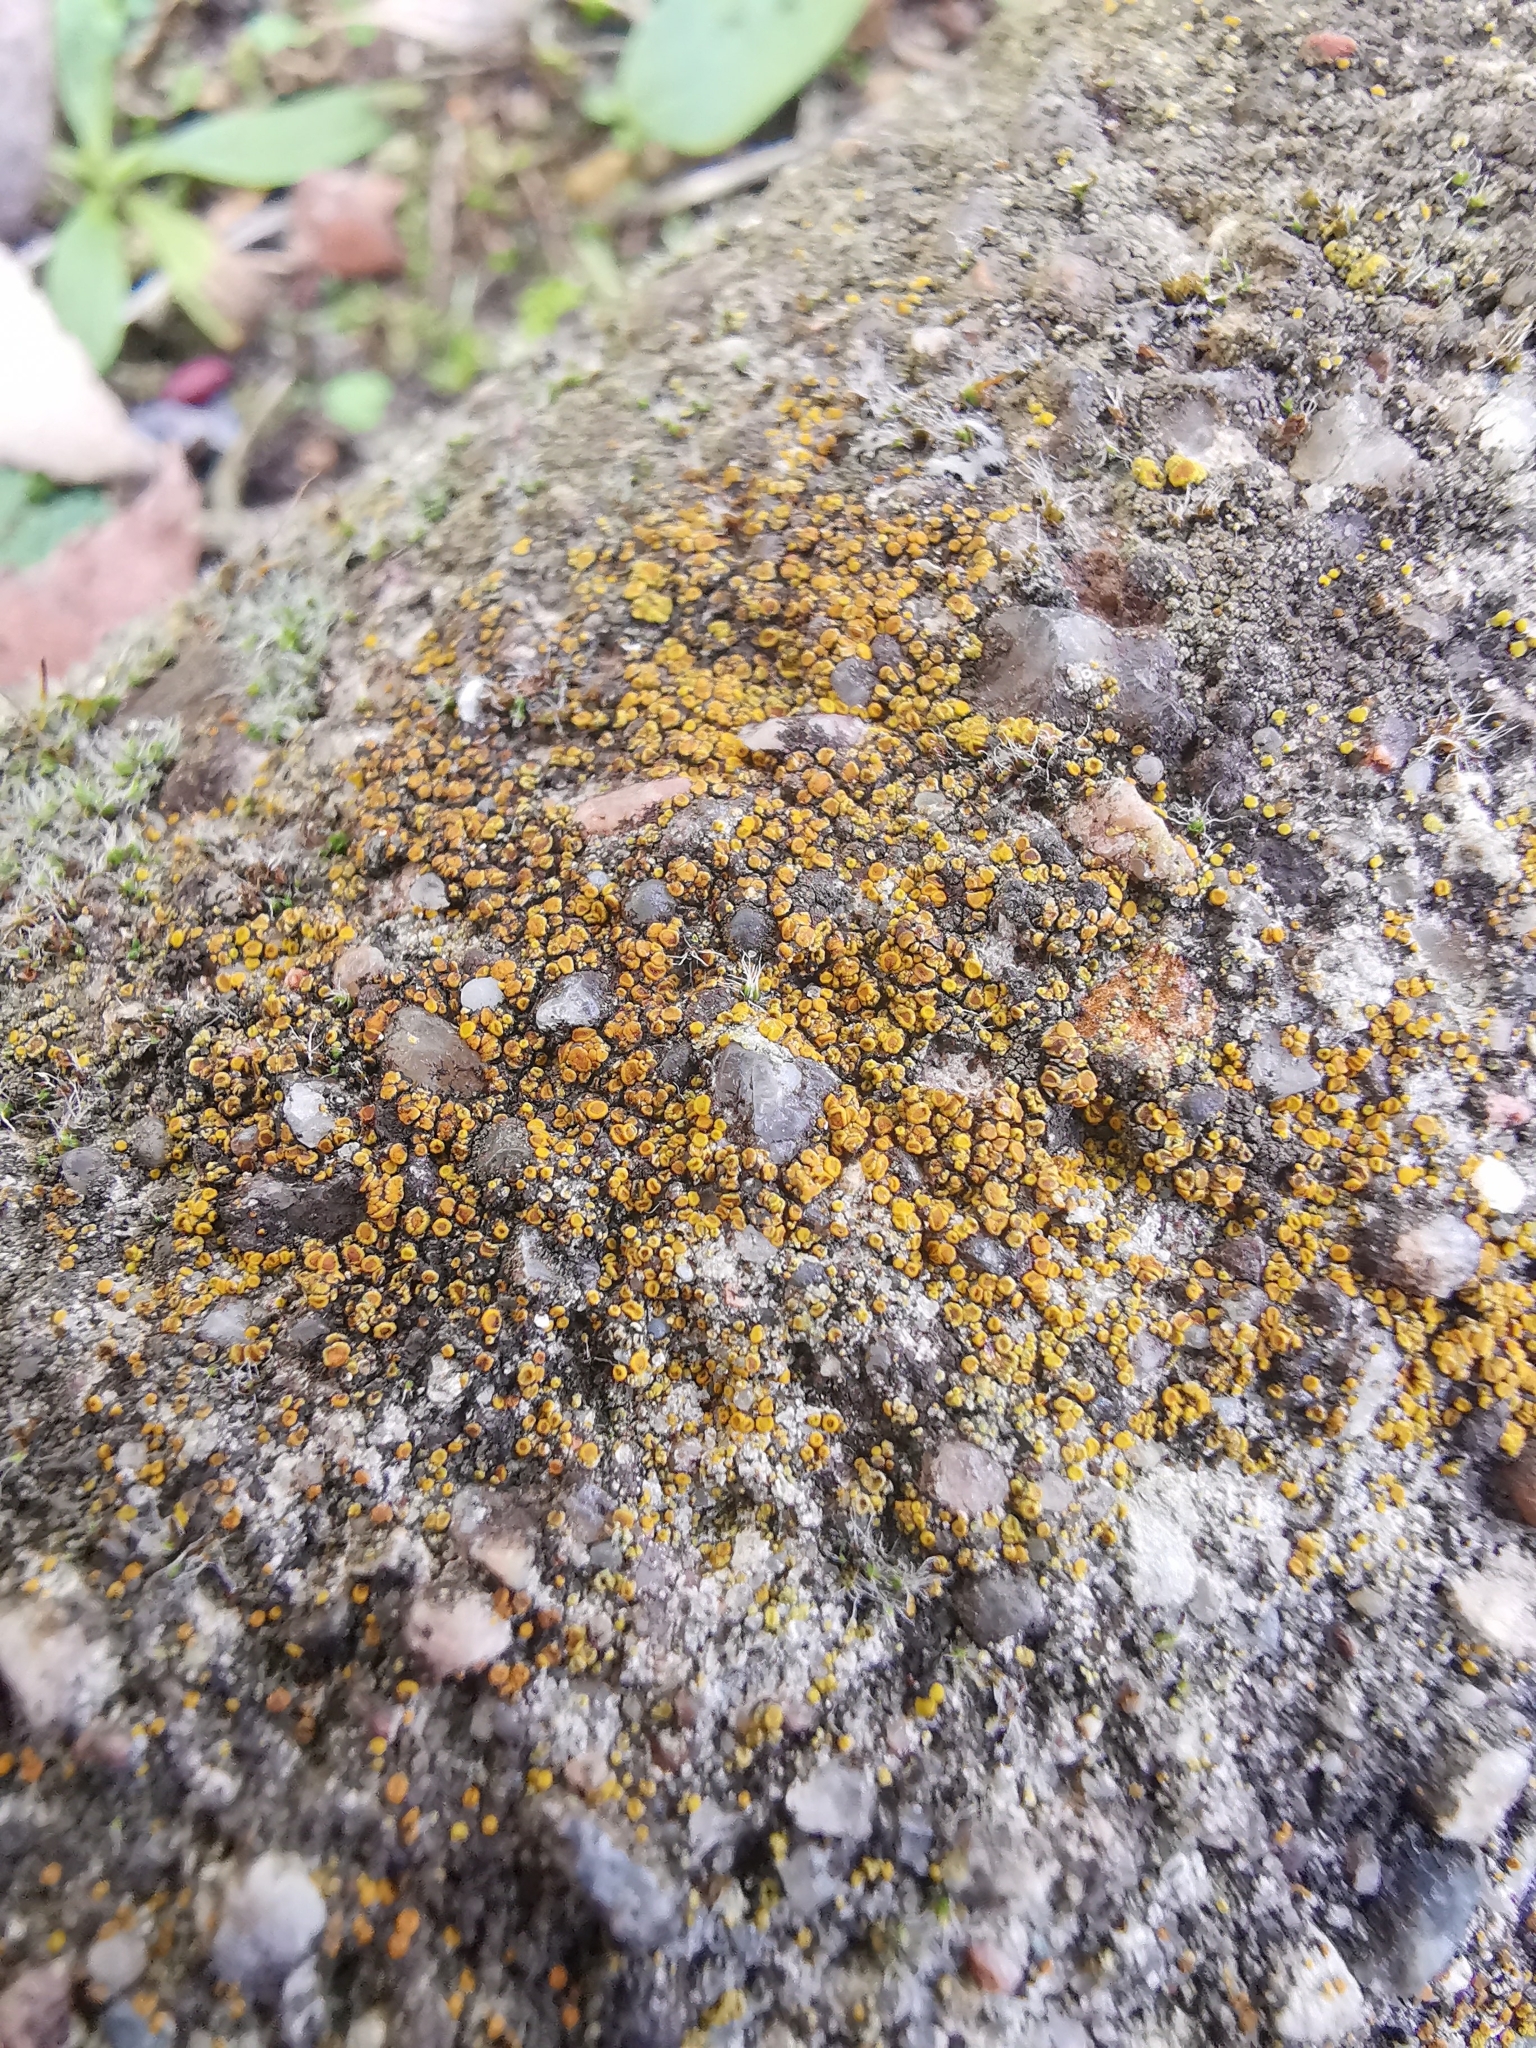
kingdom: Fungi
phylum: Ascomycota
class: Candelariomycetes
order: Candelariales
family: Candelariaceae
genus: Candelariella
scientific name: Candelariella vitellina
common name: Common goldspeck
